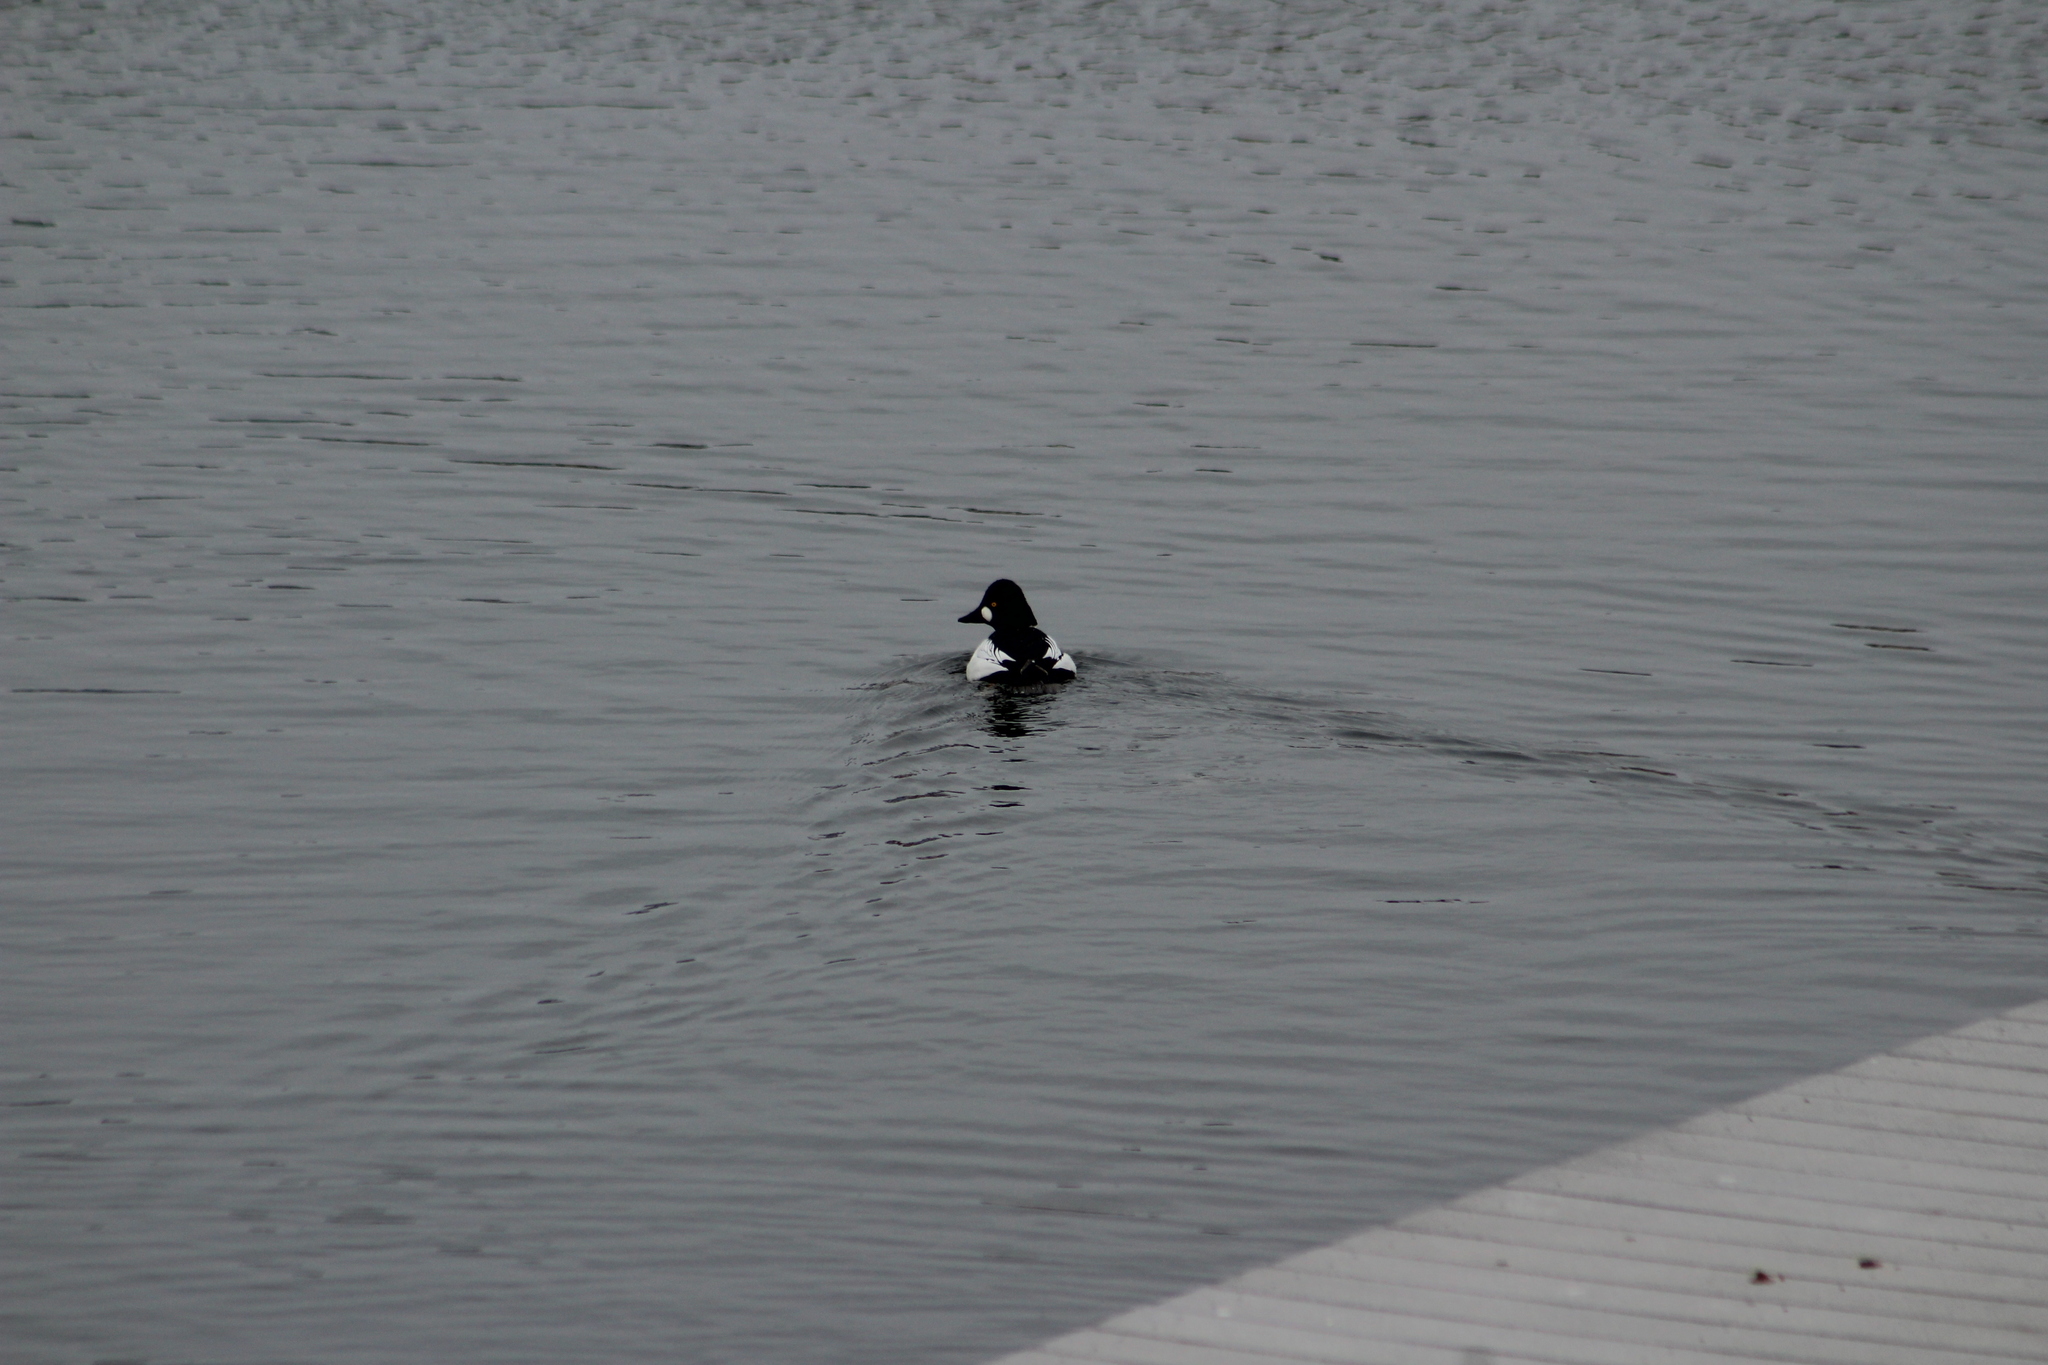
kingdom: Animalia
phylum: Chordata
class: Aves
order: Anseriformes
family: Anatidae
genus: Bucephala
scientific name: Bucephala clangula
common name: Common goldeneye
